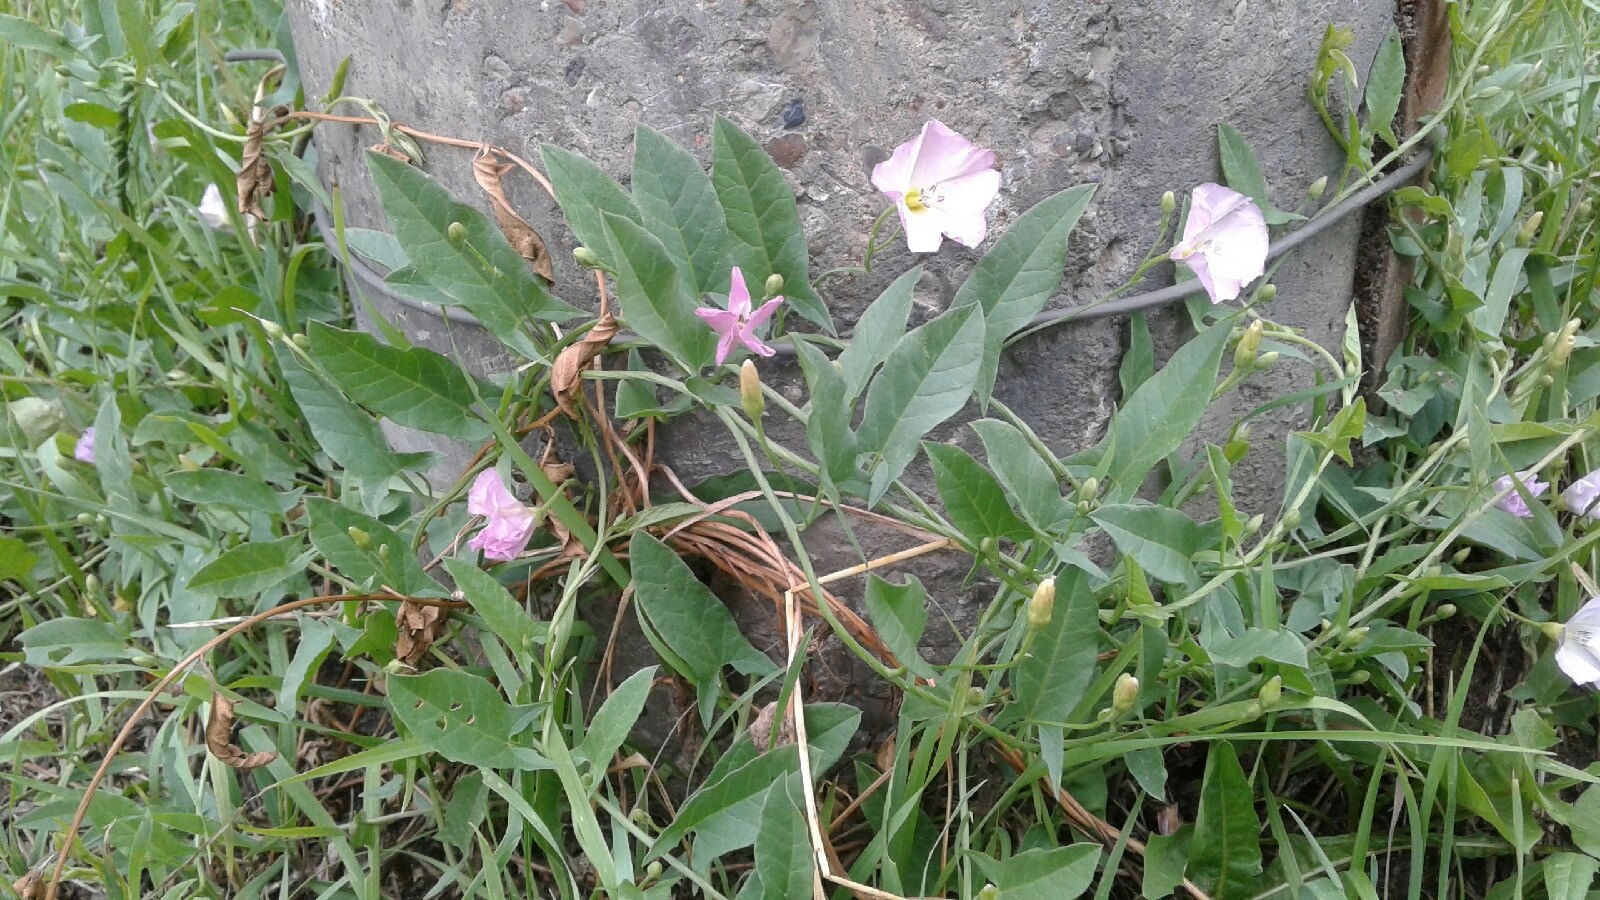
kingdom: Plantae
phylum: Tracheophyta
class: Magnoliopsida
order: Solanales
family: Convolvulaceae
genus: Convolvulus
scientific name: Convolvulus arvensis
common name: Field bindweed
